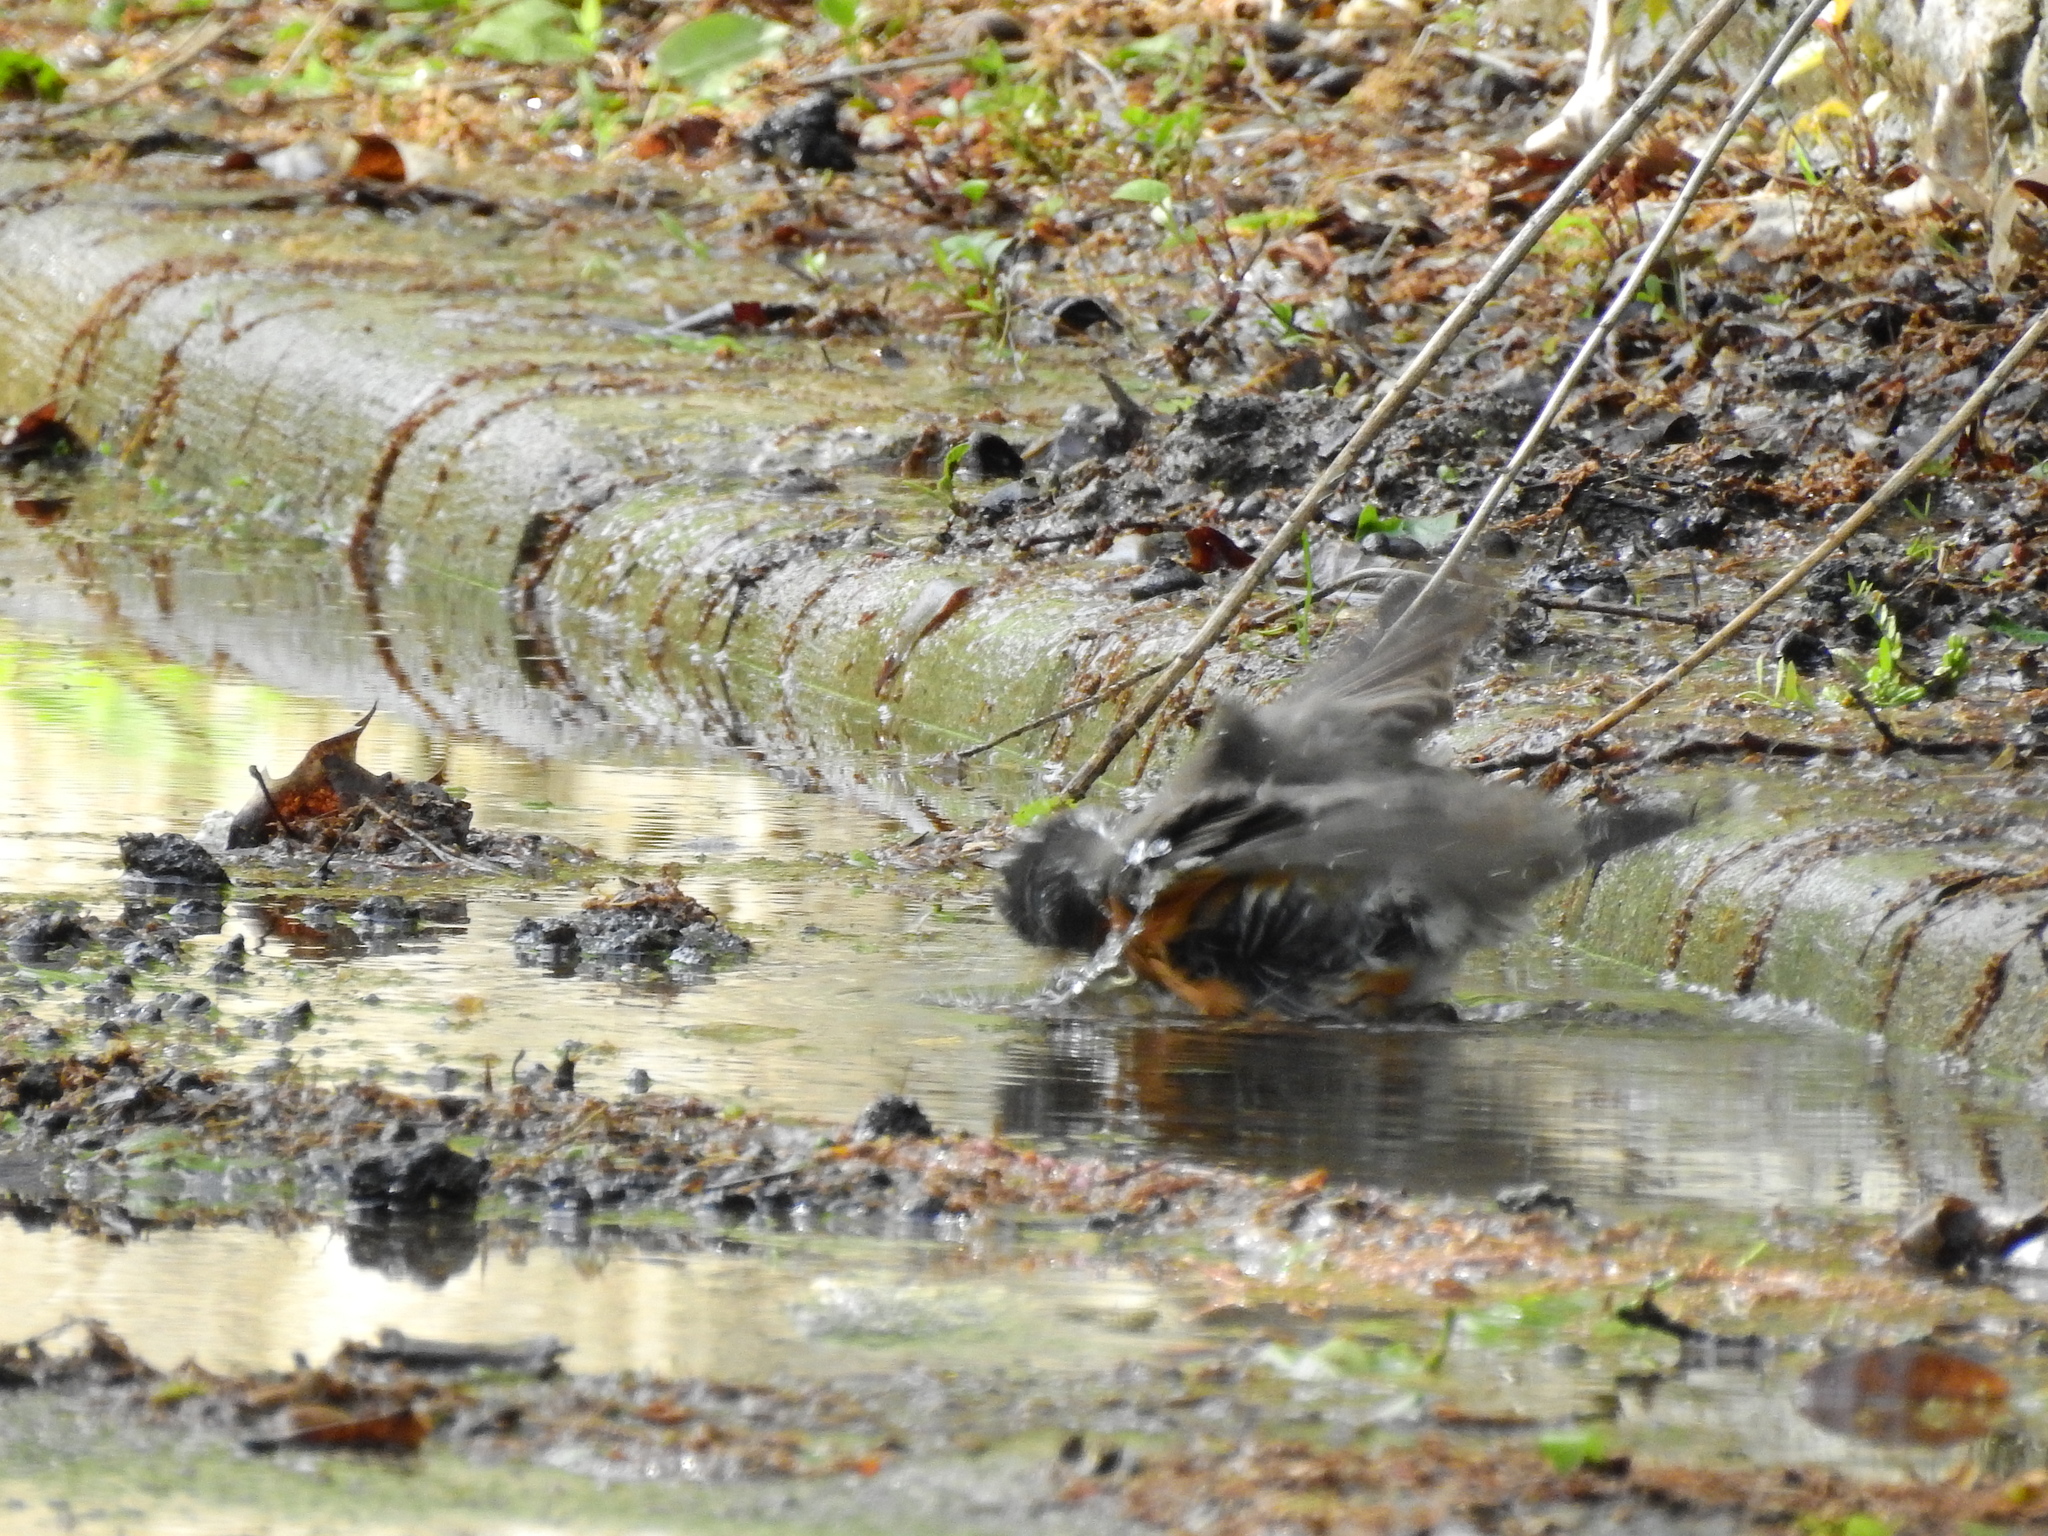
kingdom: Animalia
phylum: Chordata
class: Aves
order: Passeriformes
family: Turdidae
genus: Turdus
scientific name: Turdus migratorius
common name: American robin
